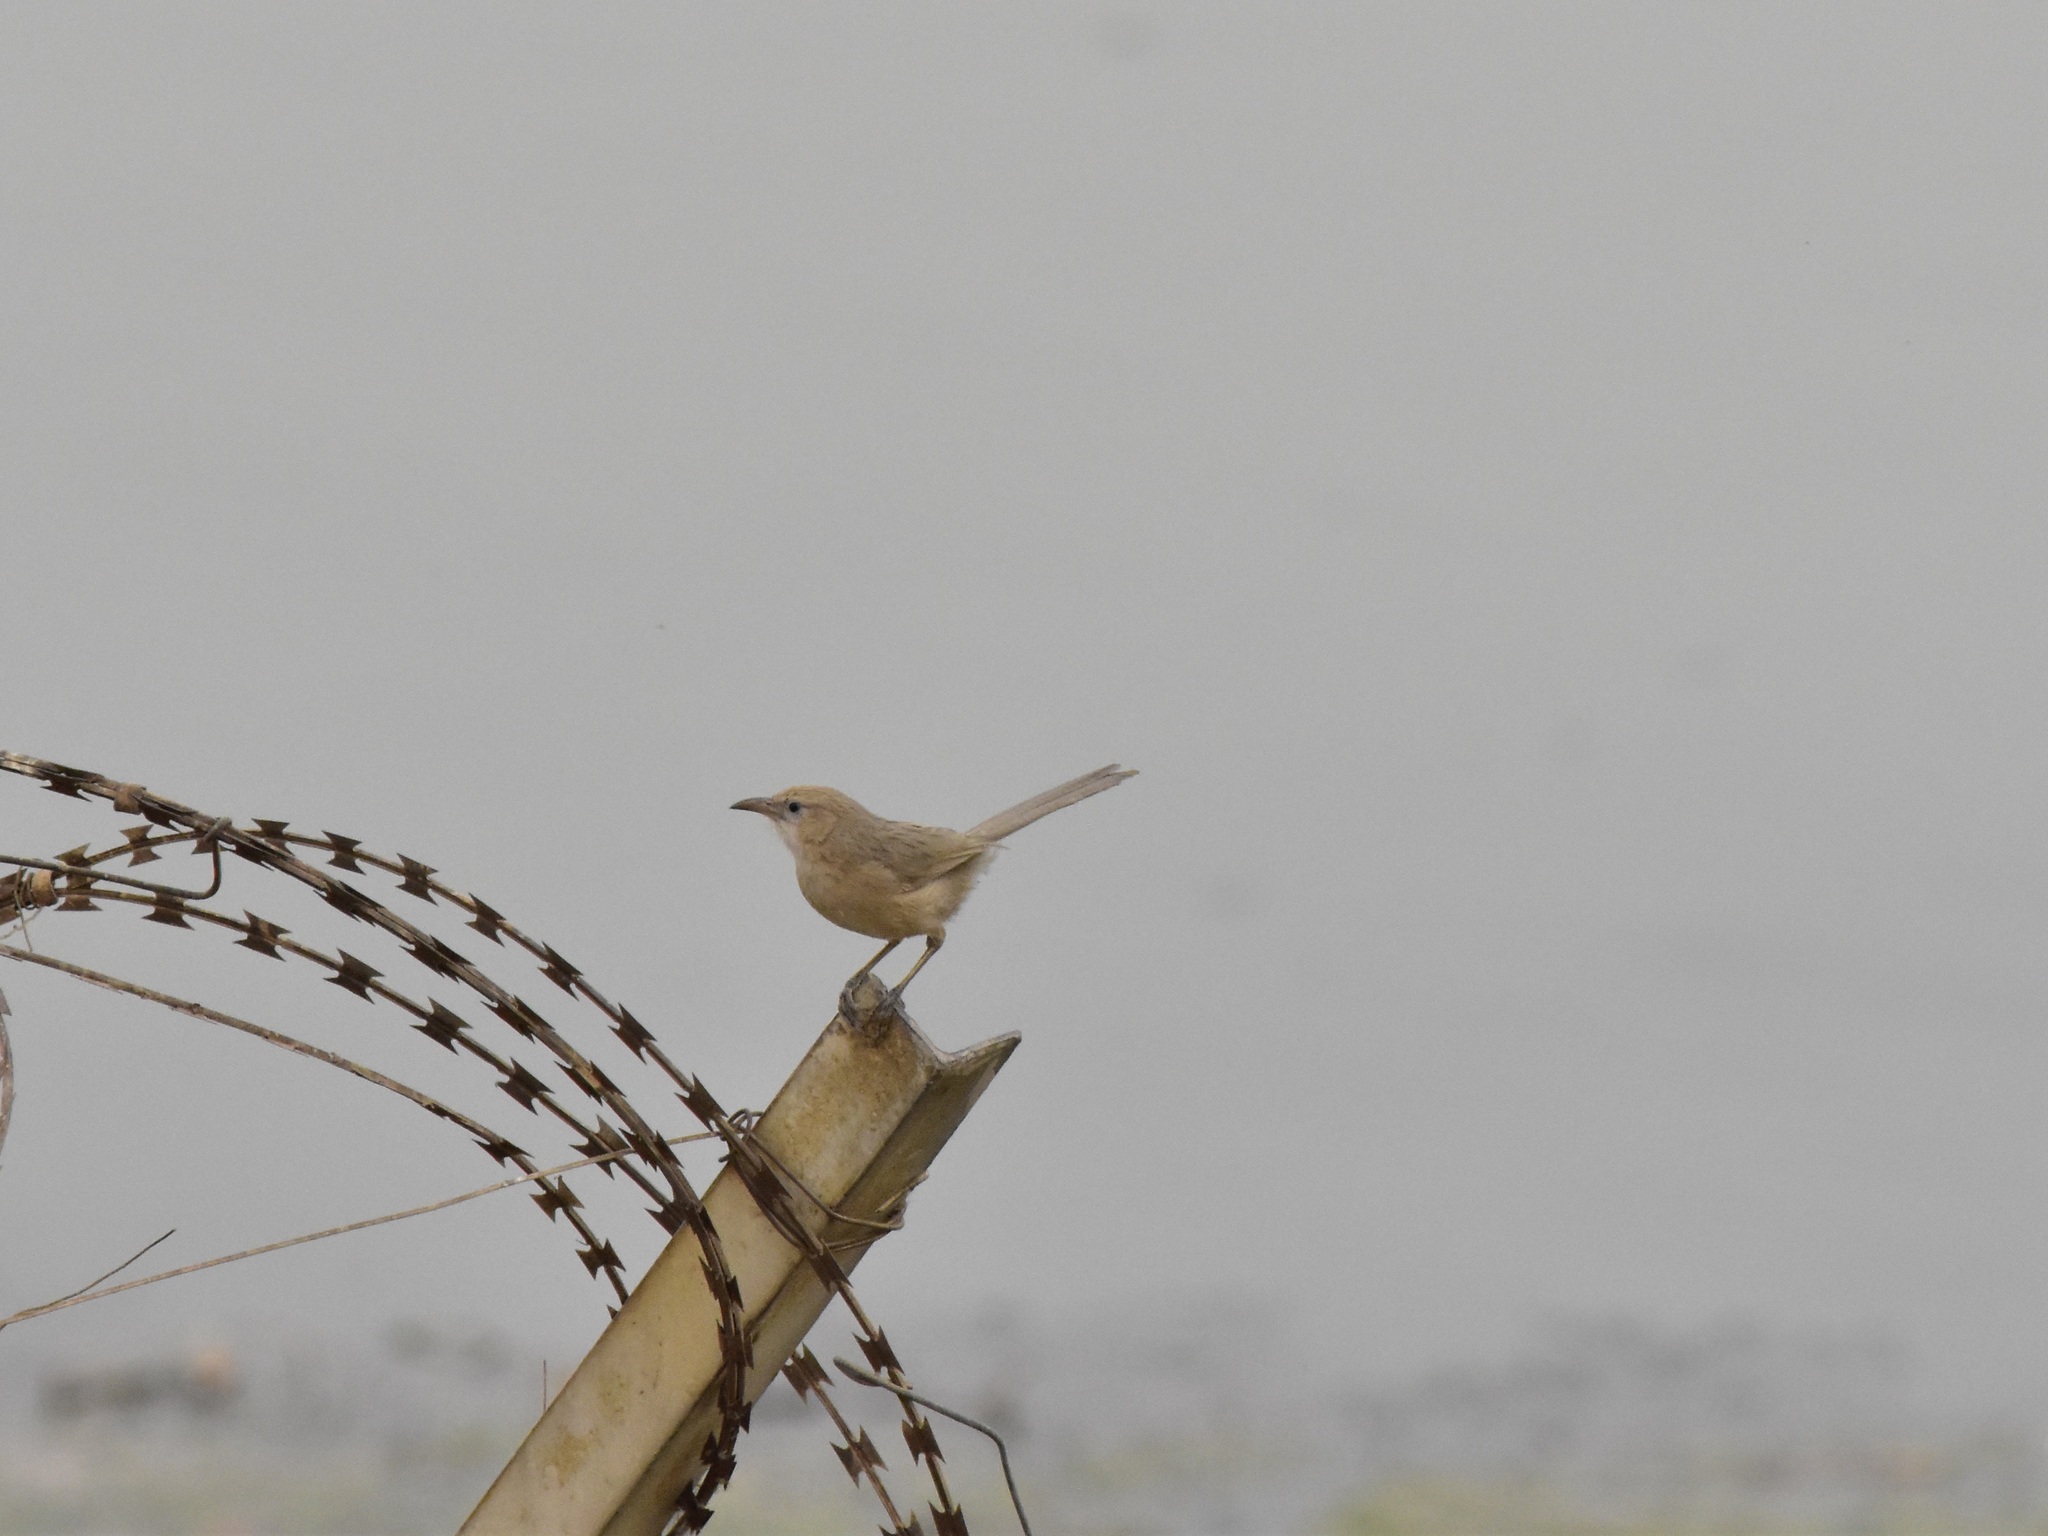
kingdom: Animalia
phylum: Chordata
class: Aves
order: Passeriformes
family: Leiothrichidae
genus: Turdoides
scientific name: Turdoides altirostris
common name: Iraq babbler
